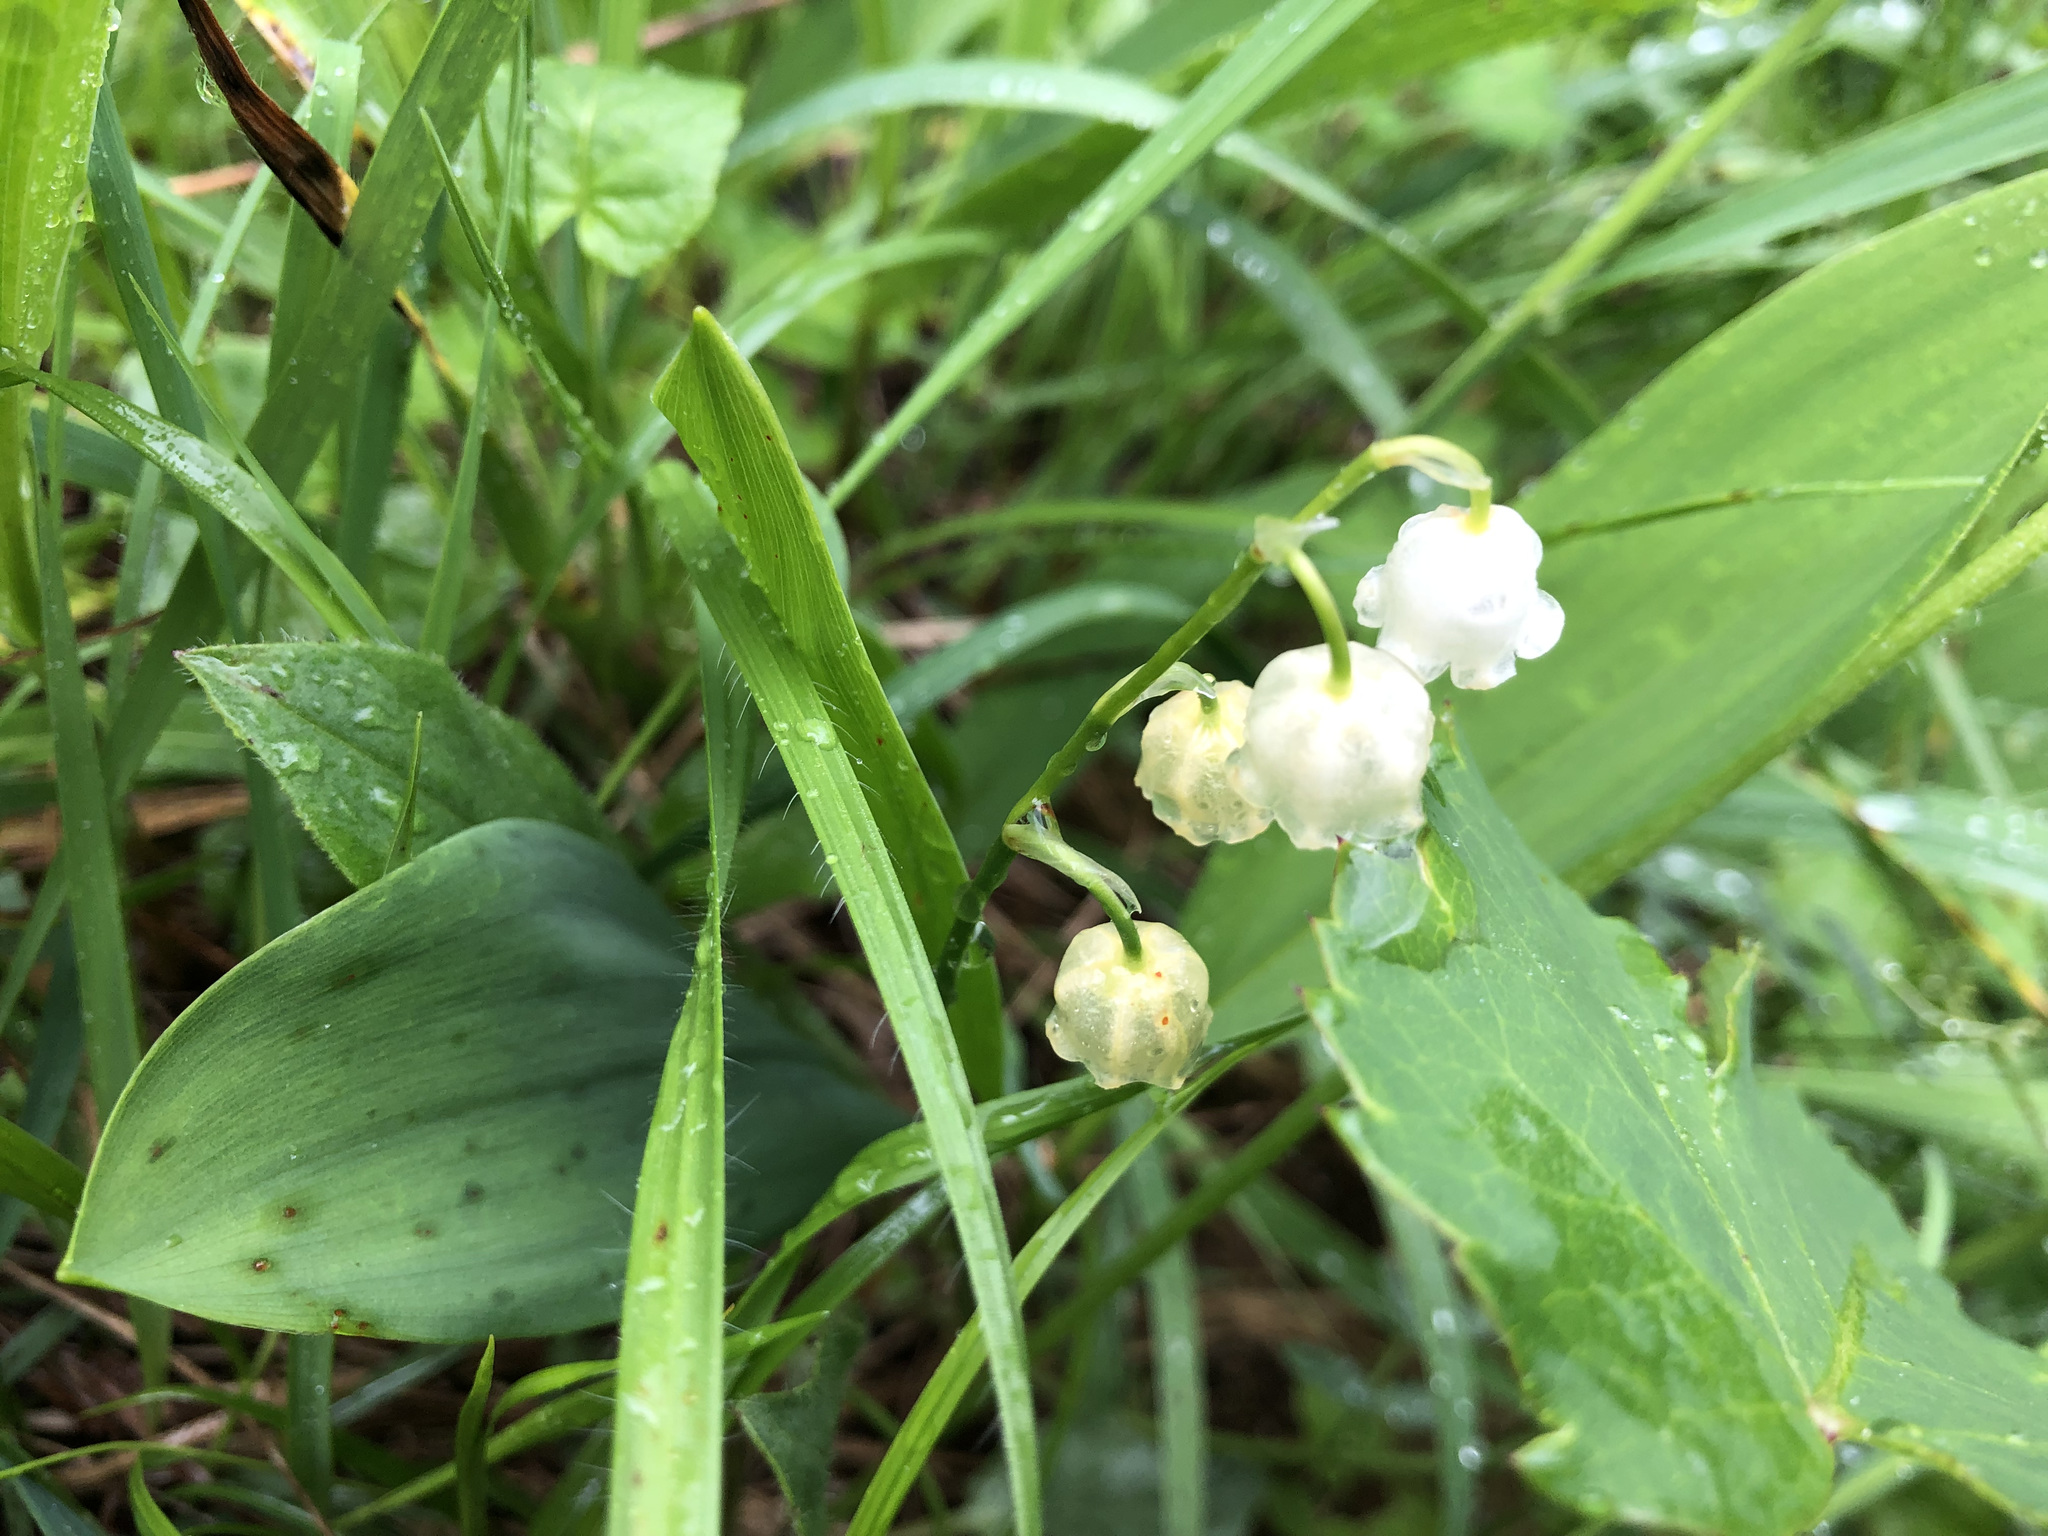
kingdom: Plantae
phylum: Tracheophyta
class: Liliopsida
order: Asparagales
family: Asparagaceae
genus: Convallaria
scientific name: Convallaria majalis
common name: Lily-of-the-valley
